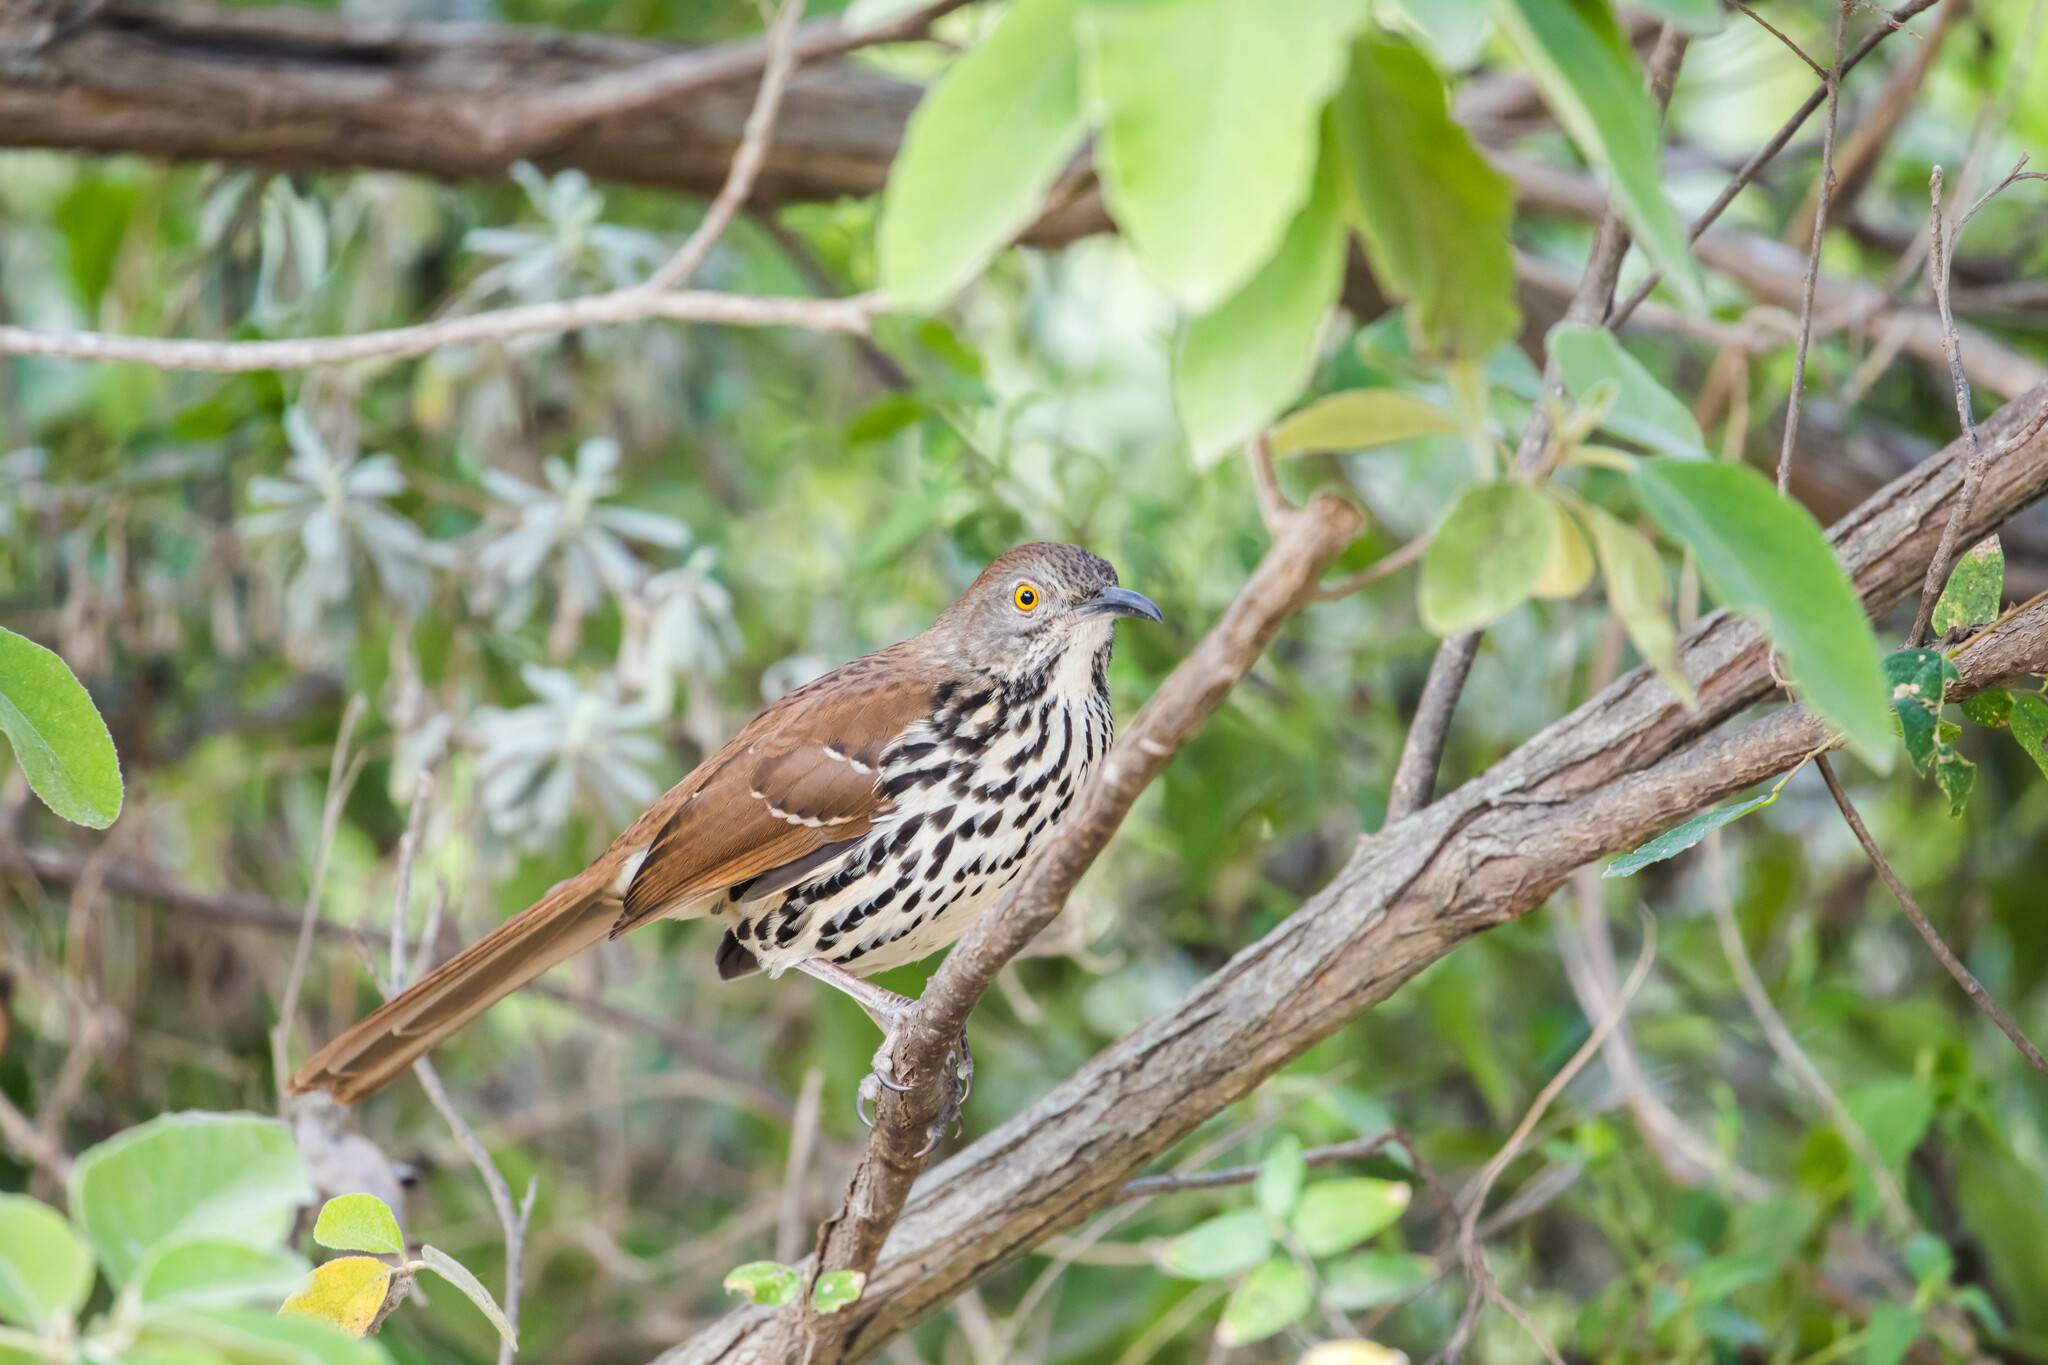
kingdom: Animalia
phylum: Chordata
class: Aves
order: Passeriformes
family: Mimidae
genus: Toxostoma
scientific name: Toxostoma longirostre
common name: Long-billed thrasher
